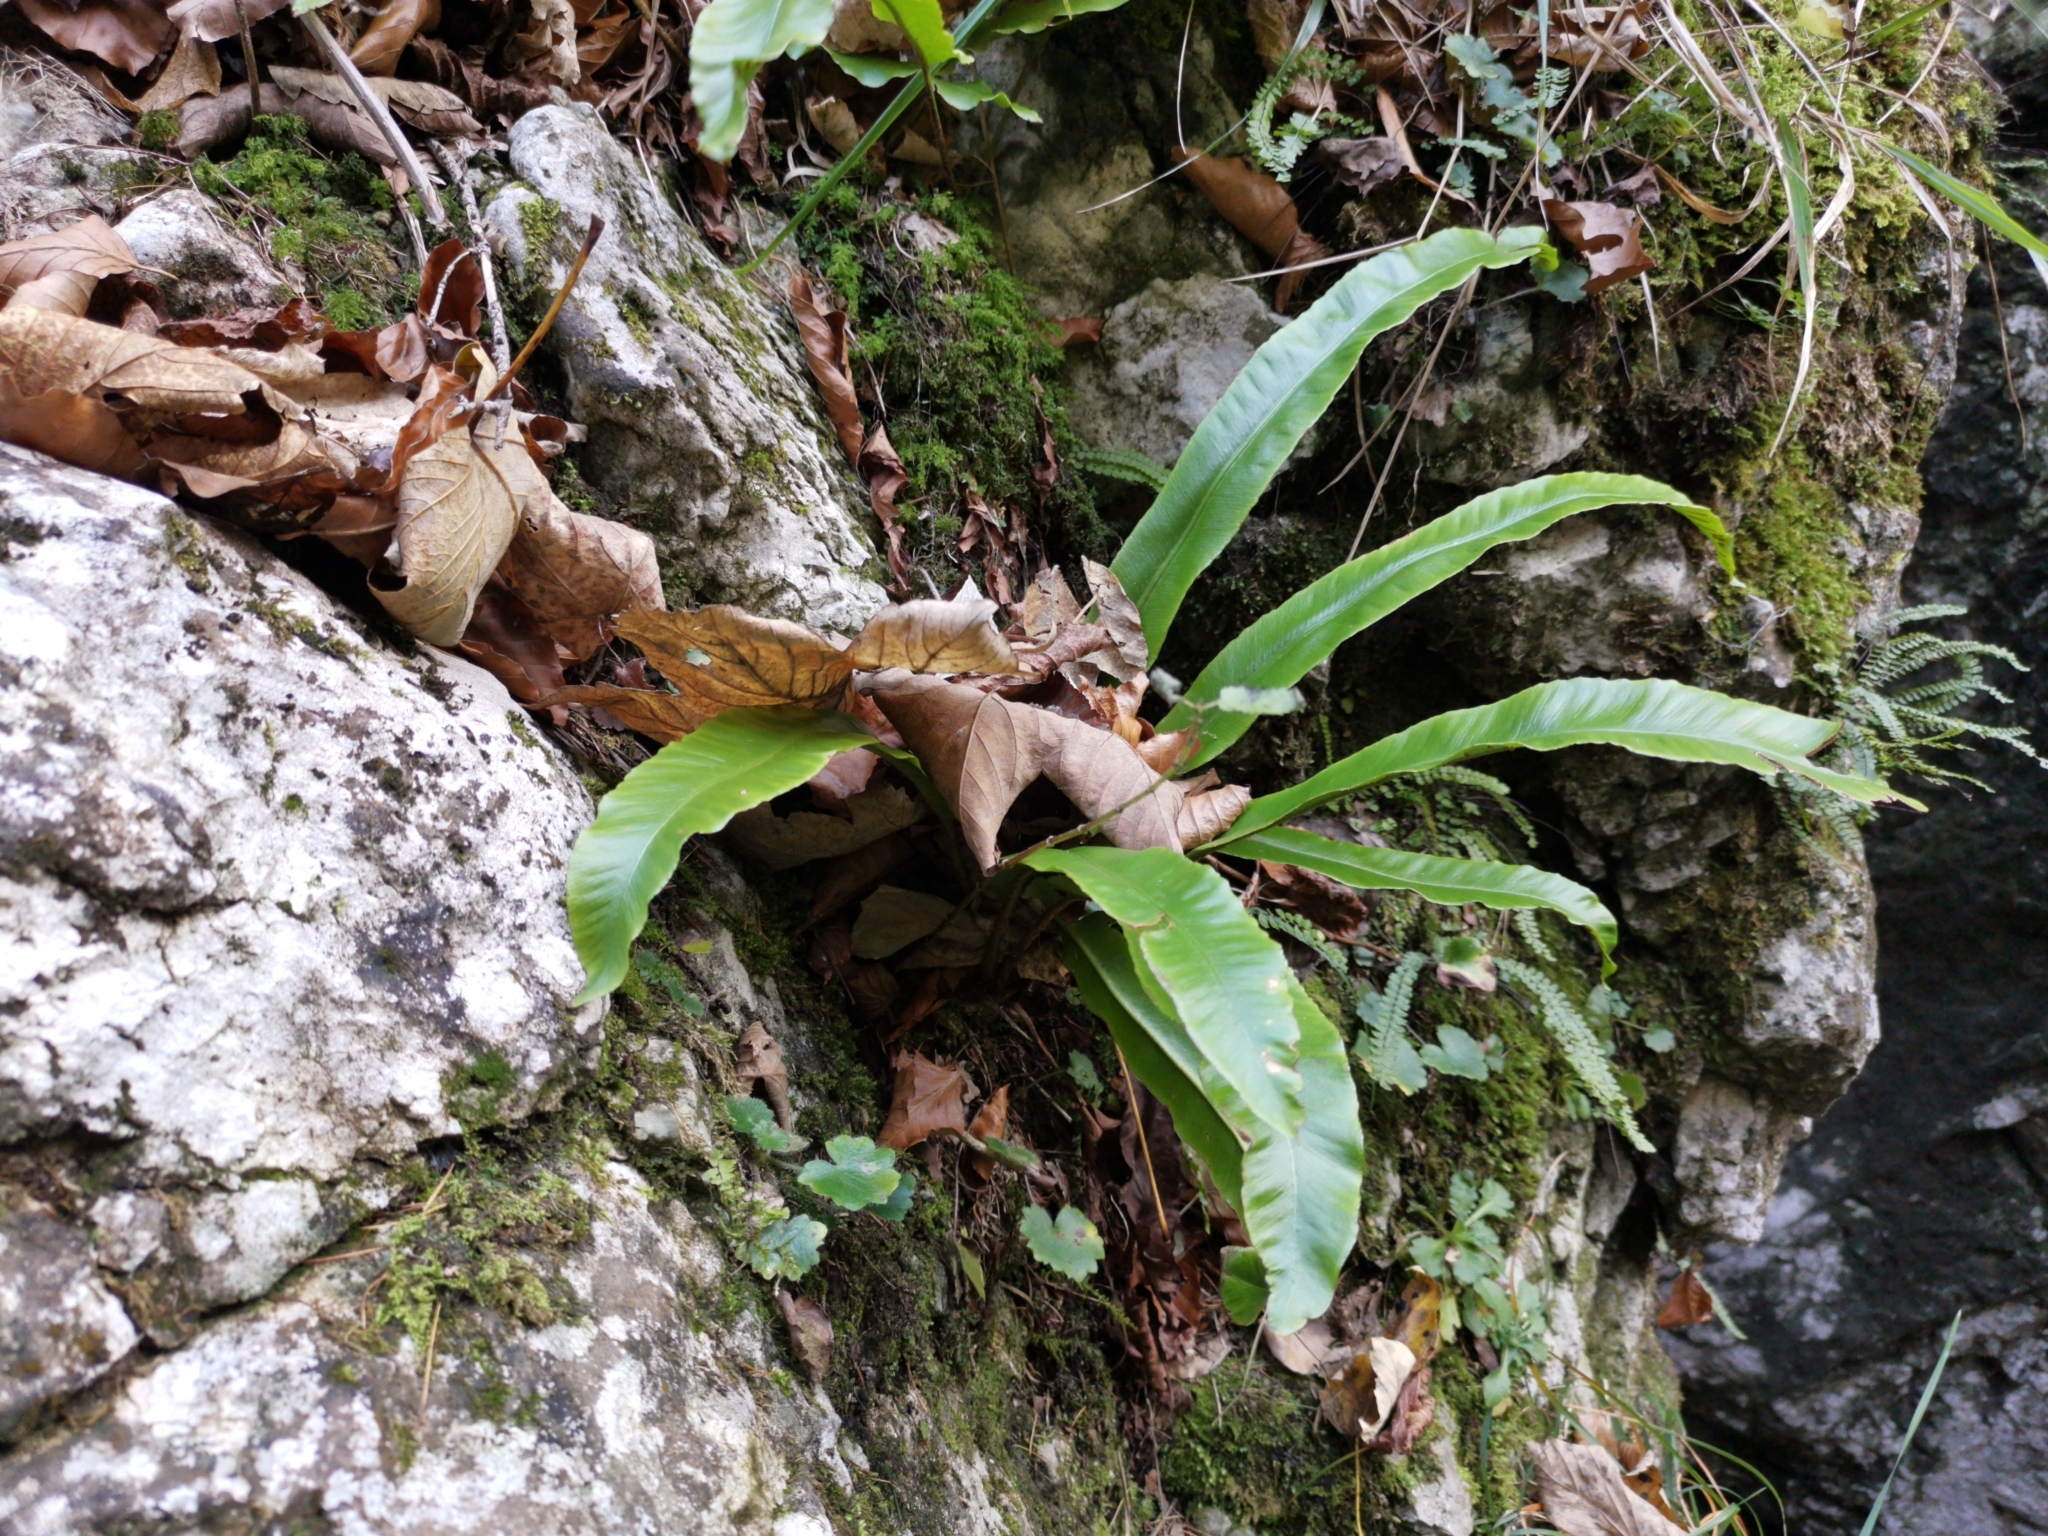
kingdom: Plantae
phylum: Tracheophyta
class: Polypodiopsida
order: Polypodiales
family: Aspleniaceae
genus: Asplenium
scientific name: Asplenium scolopendrium
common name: Hart's-tongue fern
